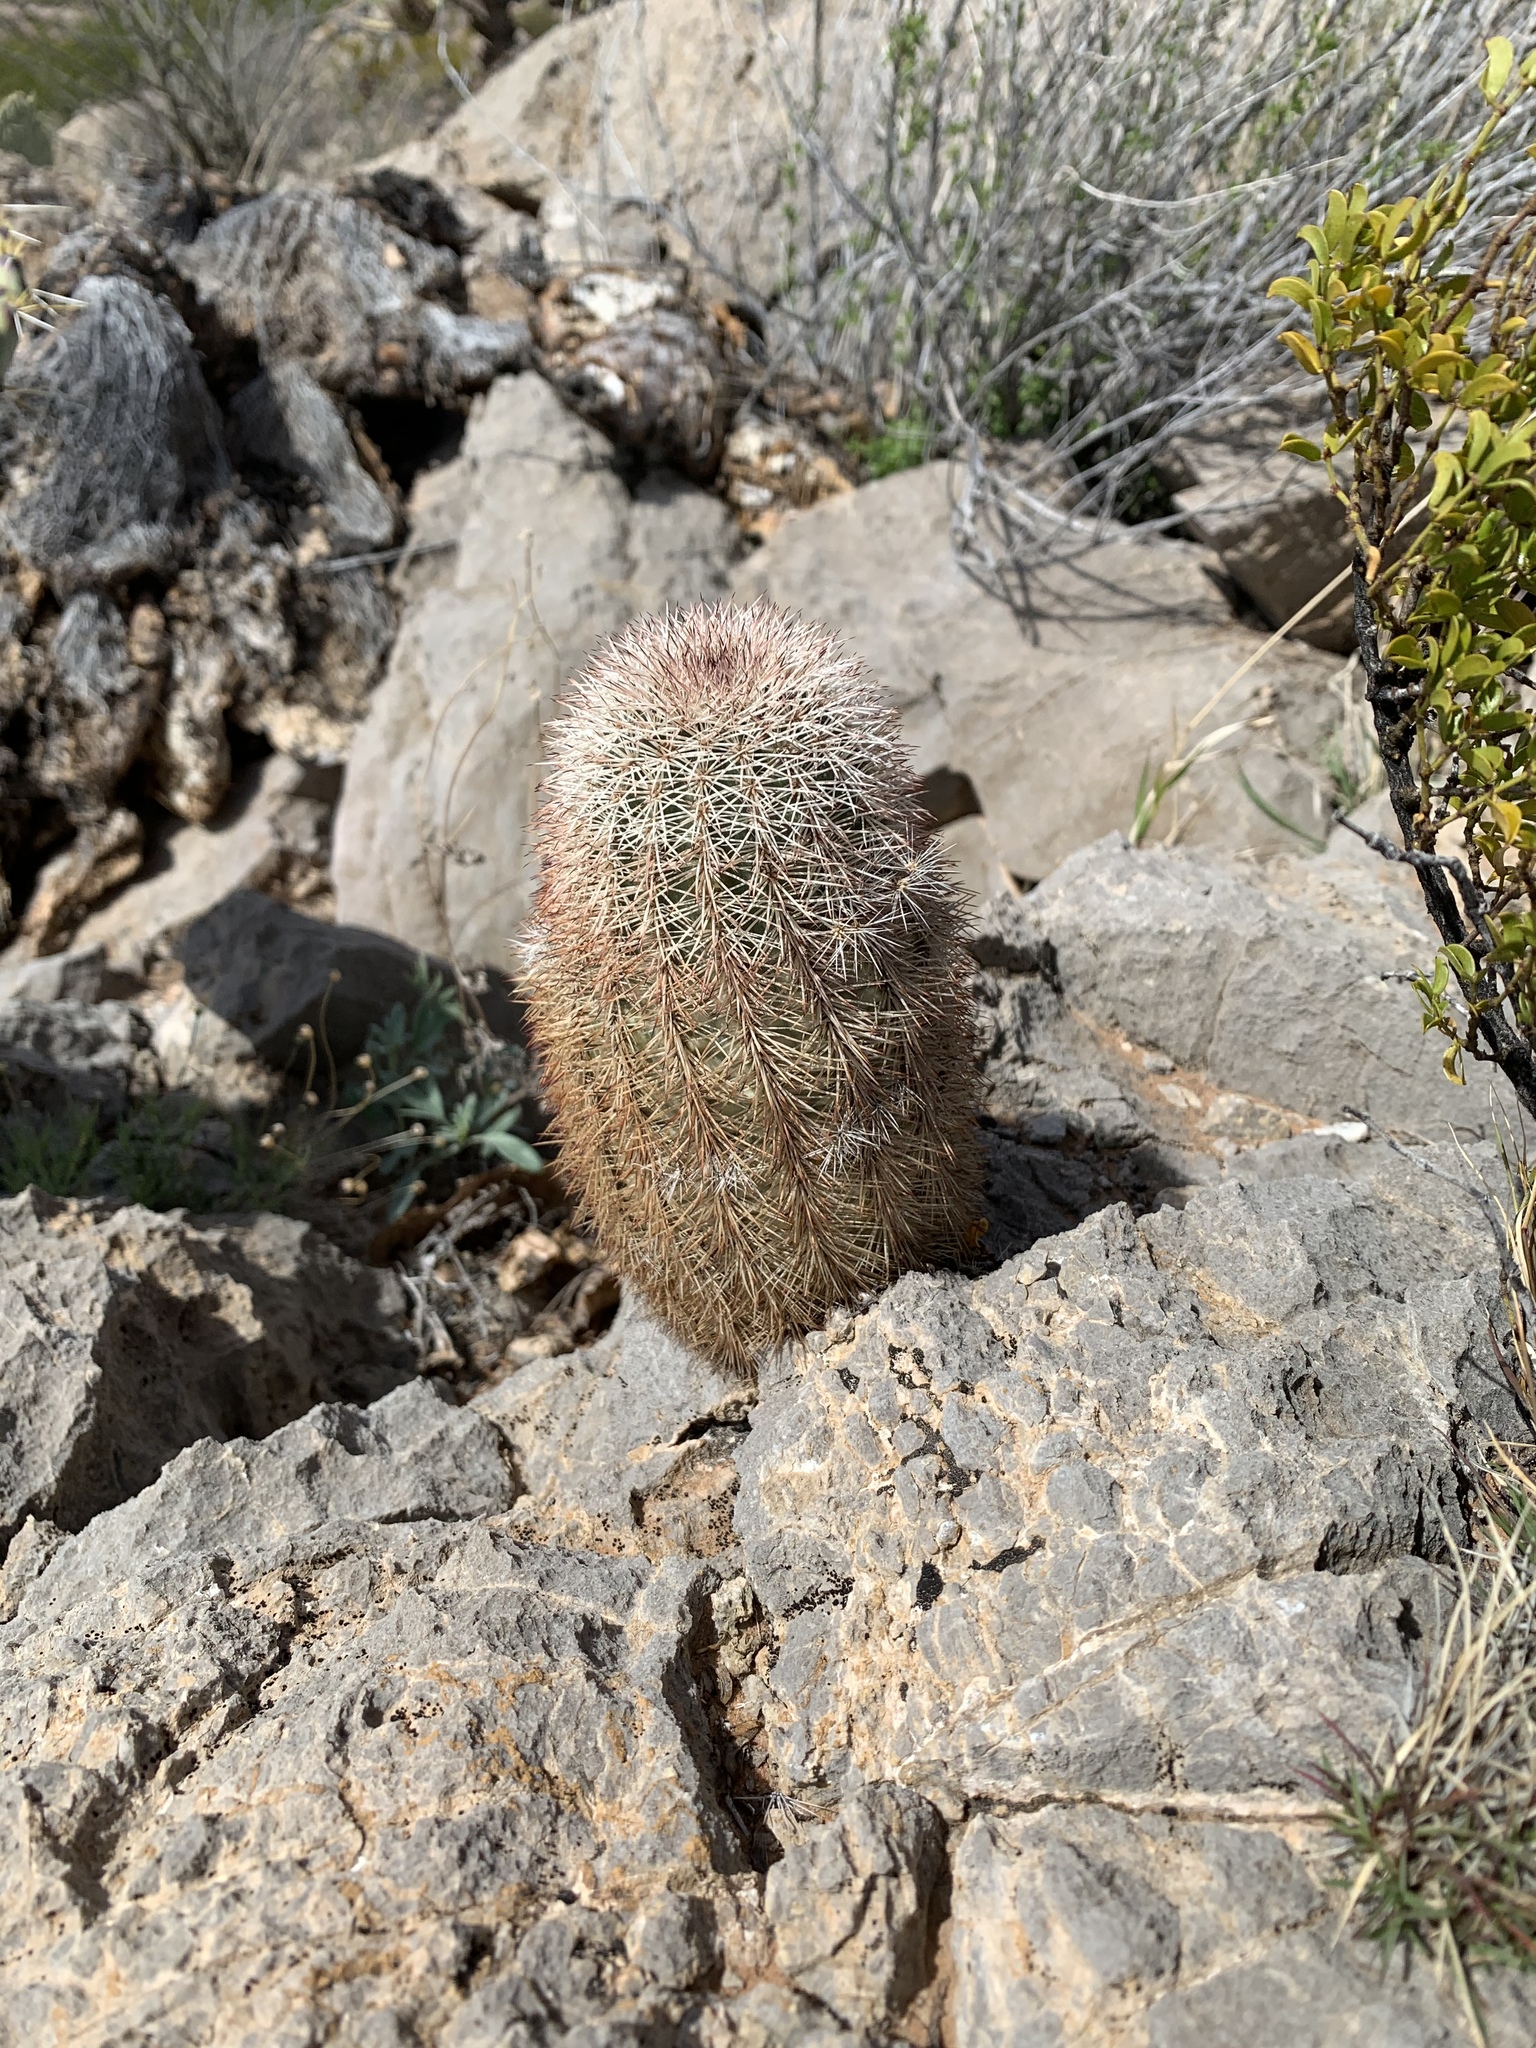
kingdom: Plantae
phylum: Tracheophyta
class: Magnoliopsida
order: Caryophyllales
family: Cactaceae
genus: Echinocereus
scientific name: Echinocereus dasyacanthus
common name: Spiny hedgehog cactus
